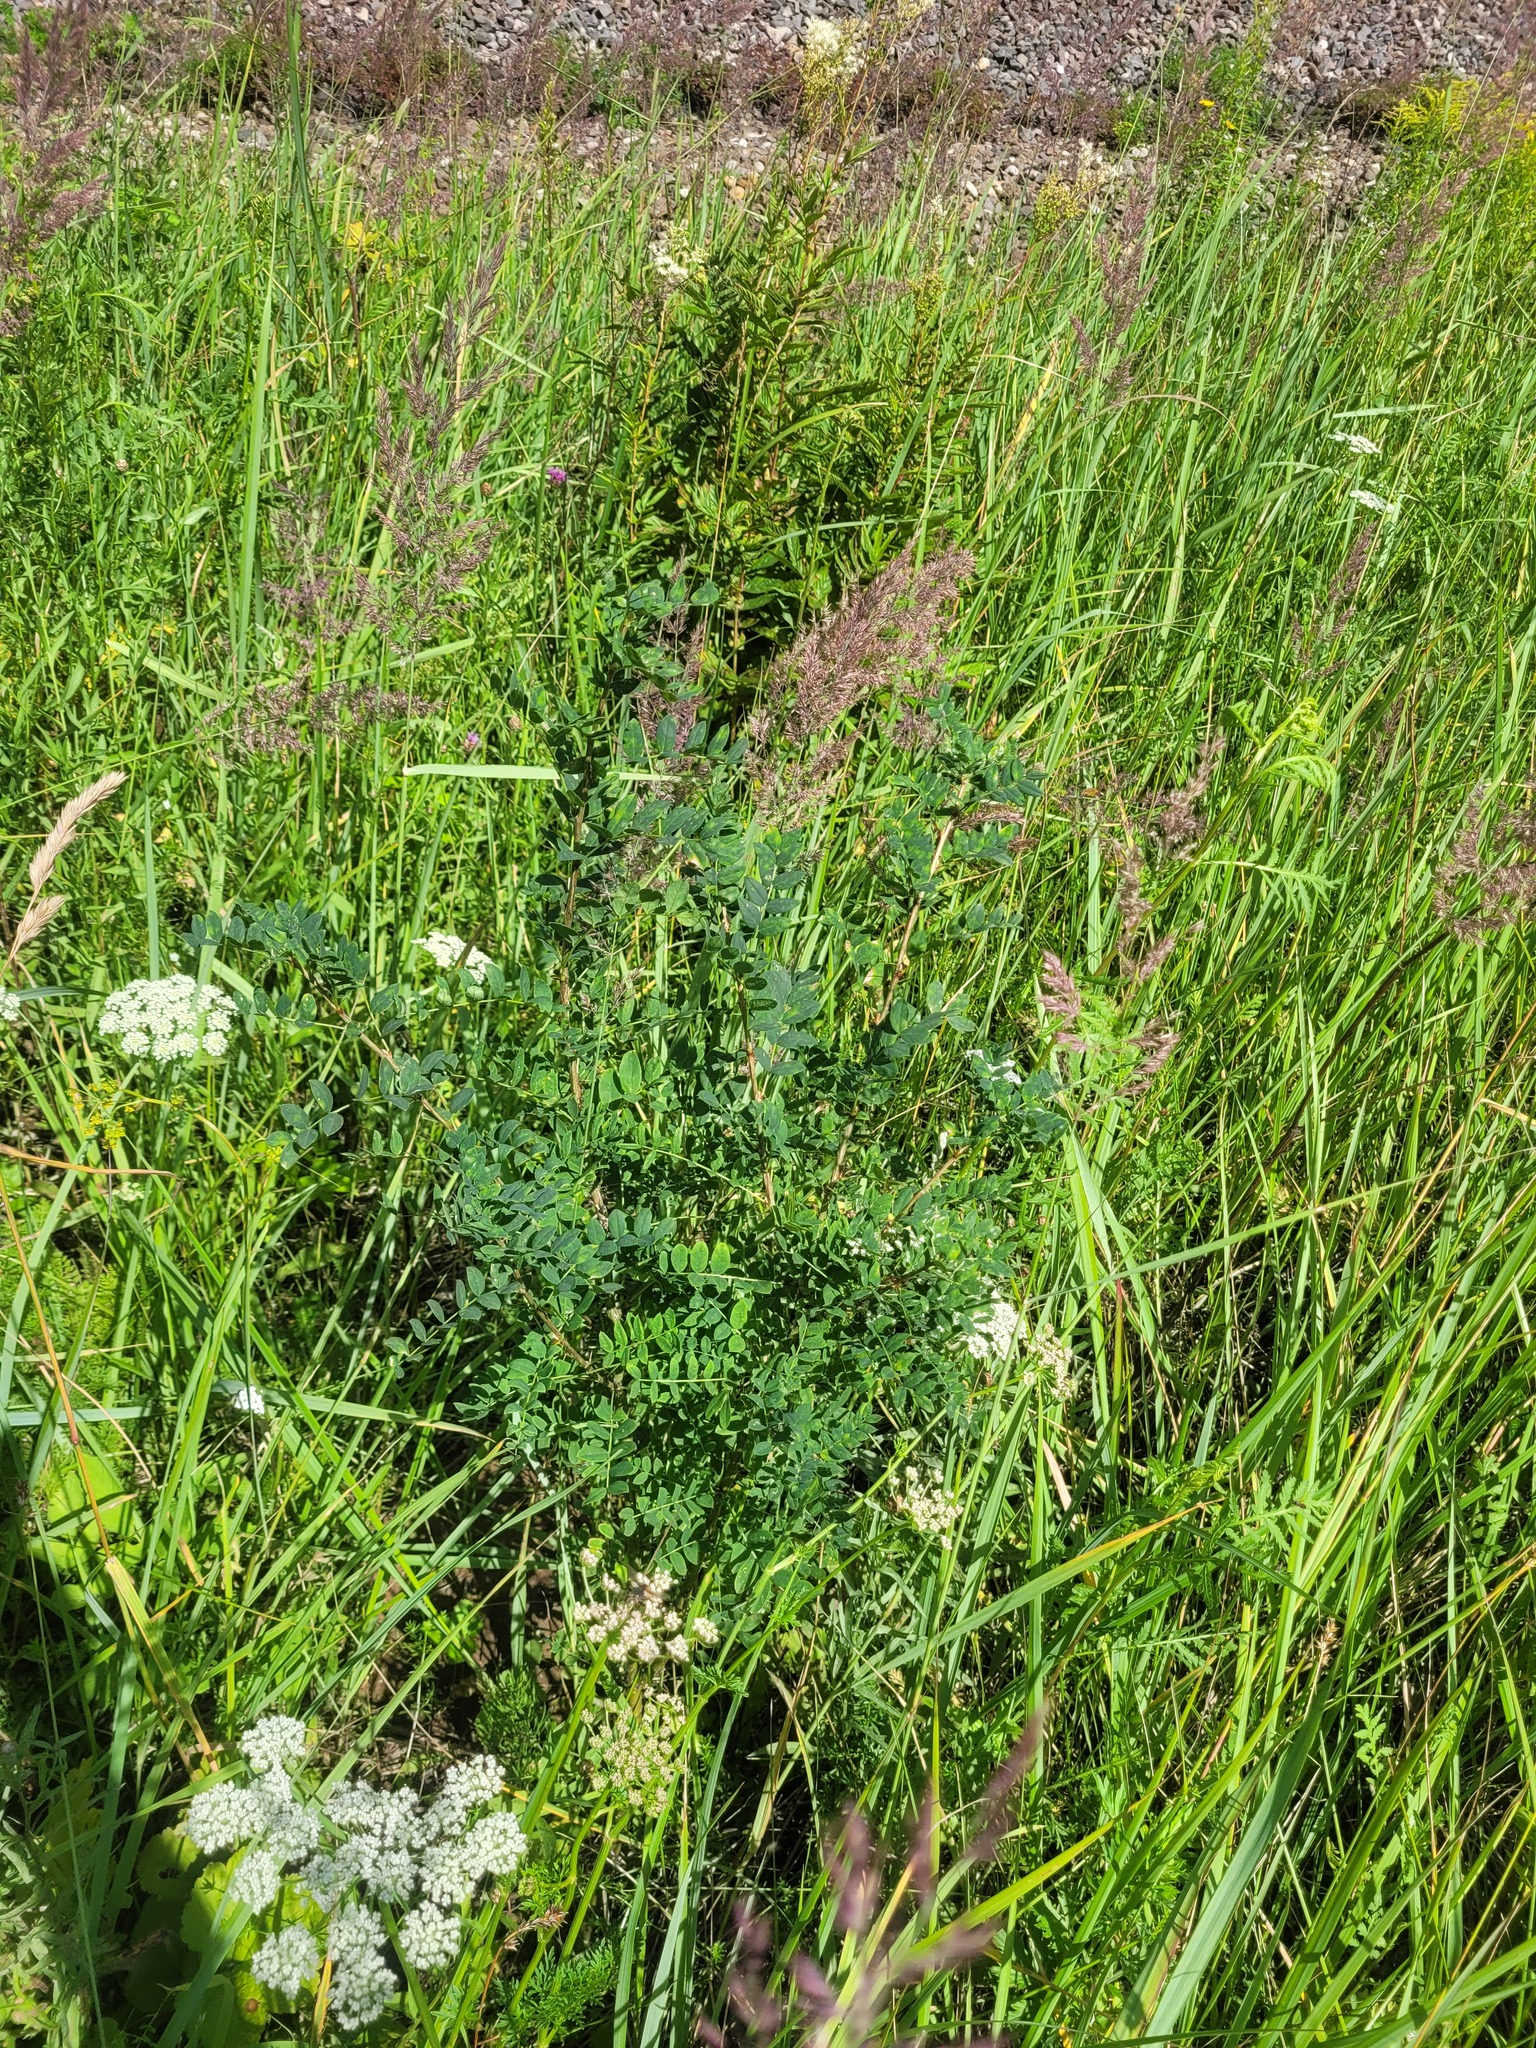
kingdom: Plantae
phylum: Tracheophyta
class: Magnoliopsida
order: Fabales
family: Fabaceae
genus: Caragana
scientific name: Caragana arborescens
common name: Siberian peashrub
